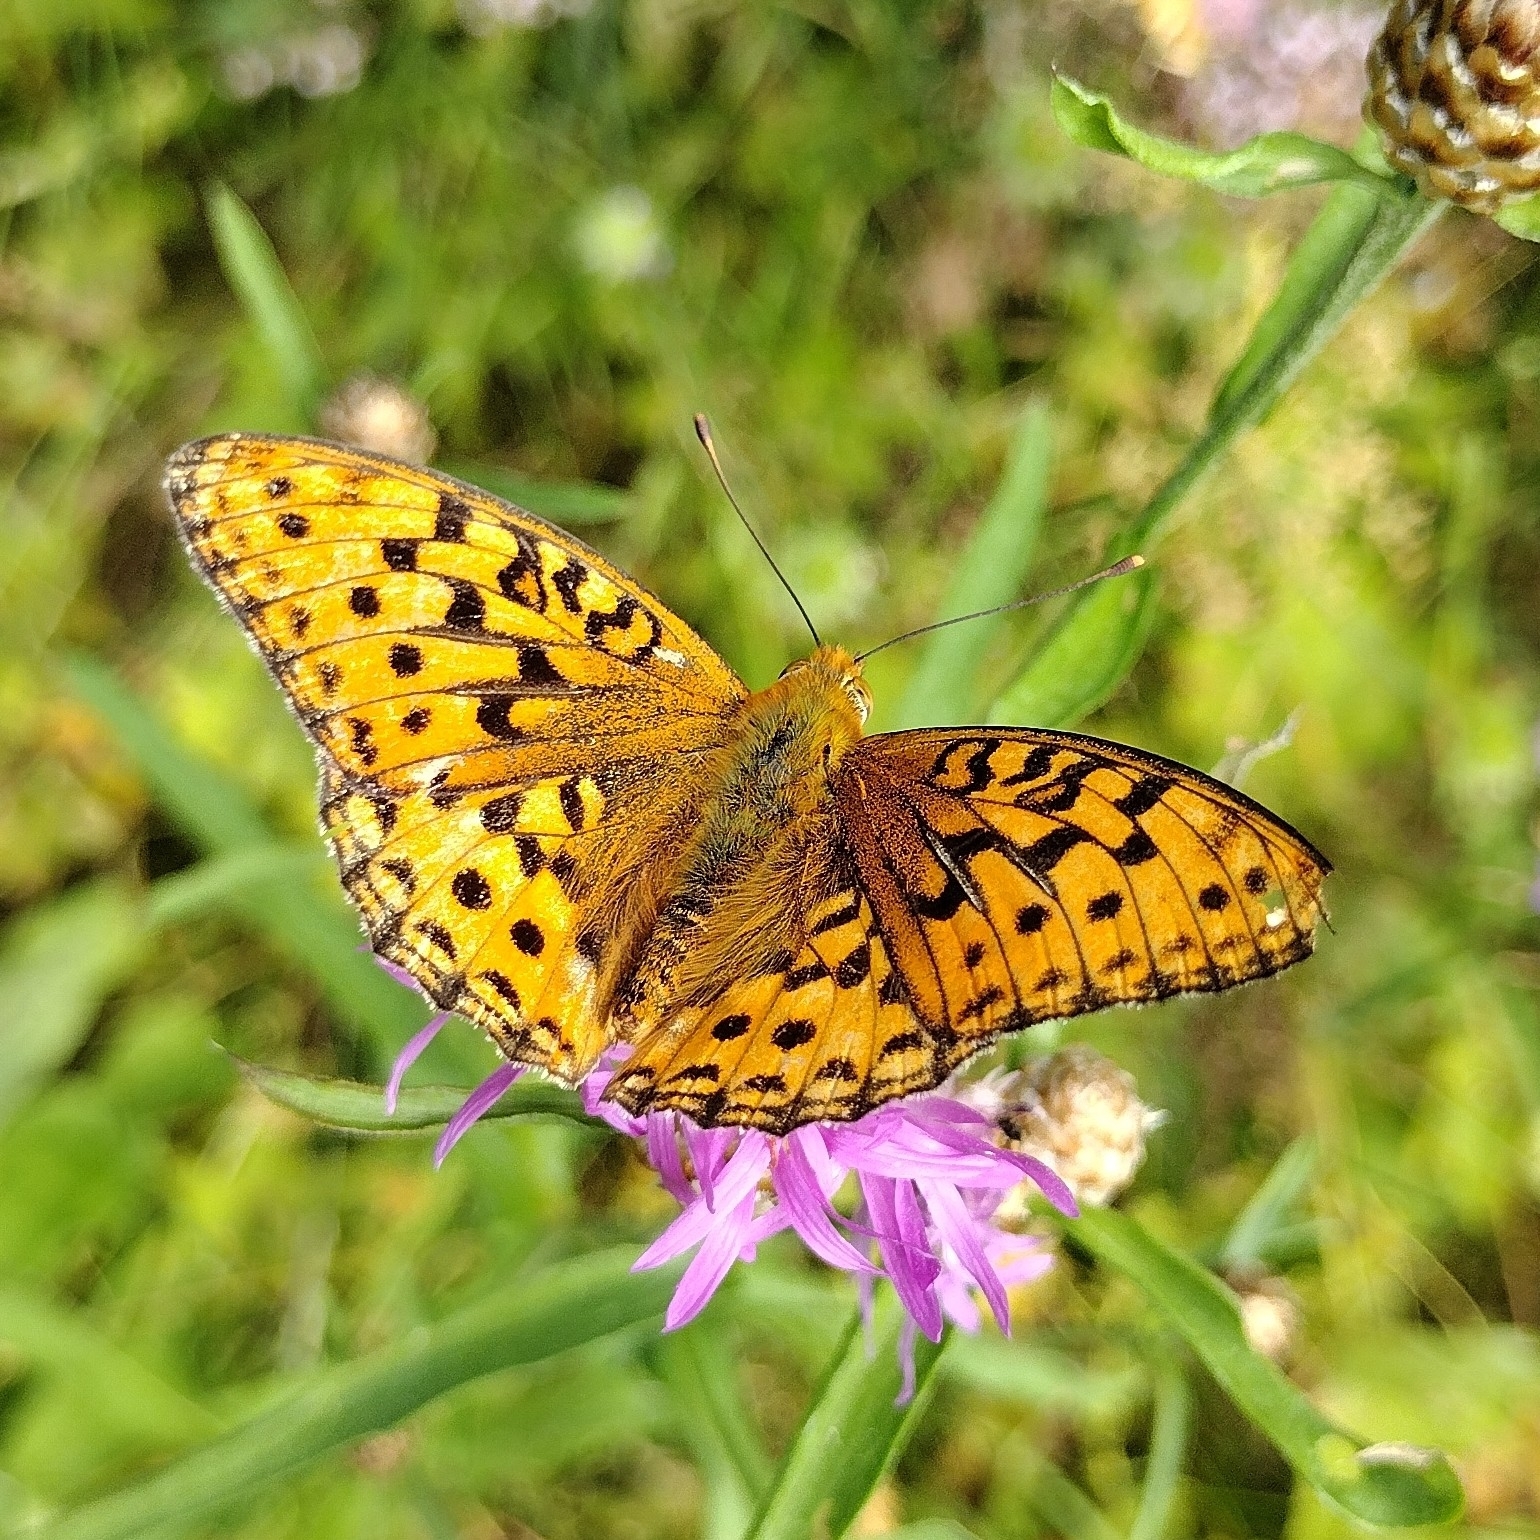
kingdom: Animalia
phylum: Arthropoda
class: Insecta
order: Lepidoptera
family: Nymphalidae
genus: Fabriciana
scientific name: Fabriciana adippe
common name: High brown fritillary
